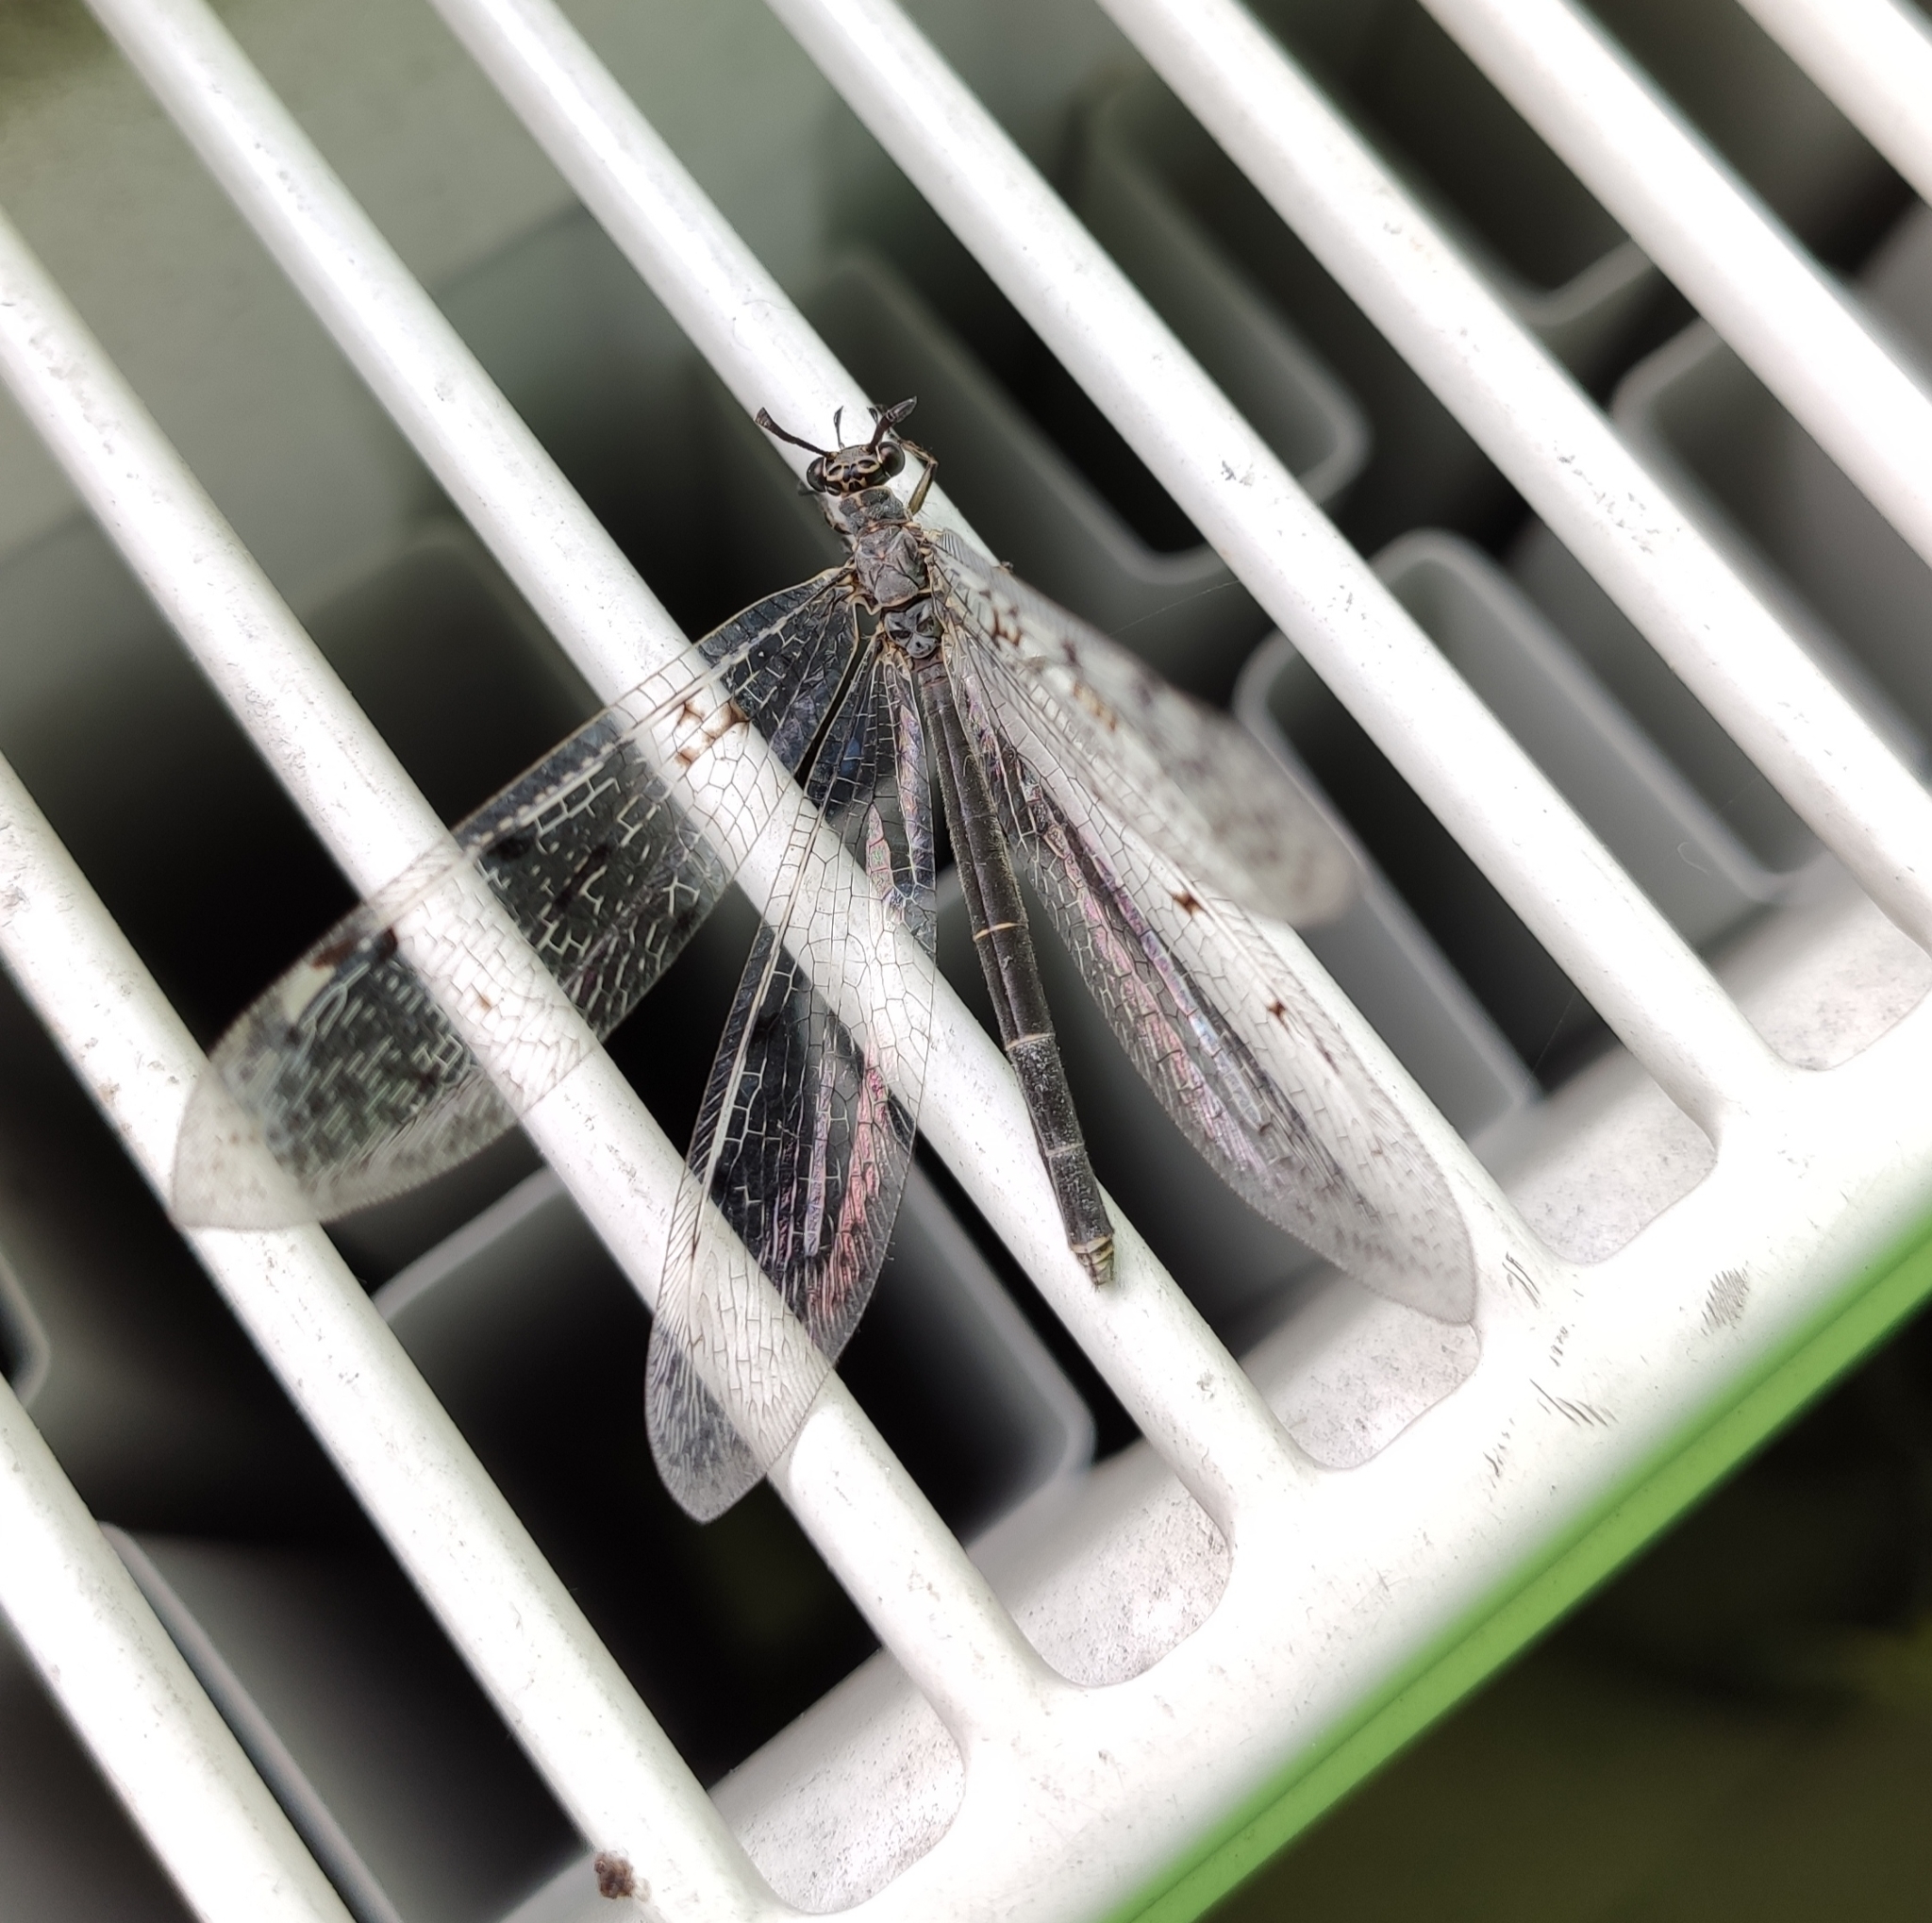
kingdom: Animalia
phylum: Arthropoda
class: Insecta
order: Neuroptera
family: Myrmeleontidae
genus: Euroleon
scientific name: Euroleon nostras
